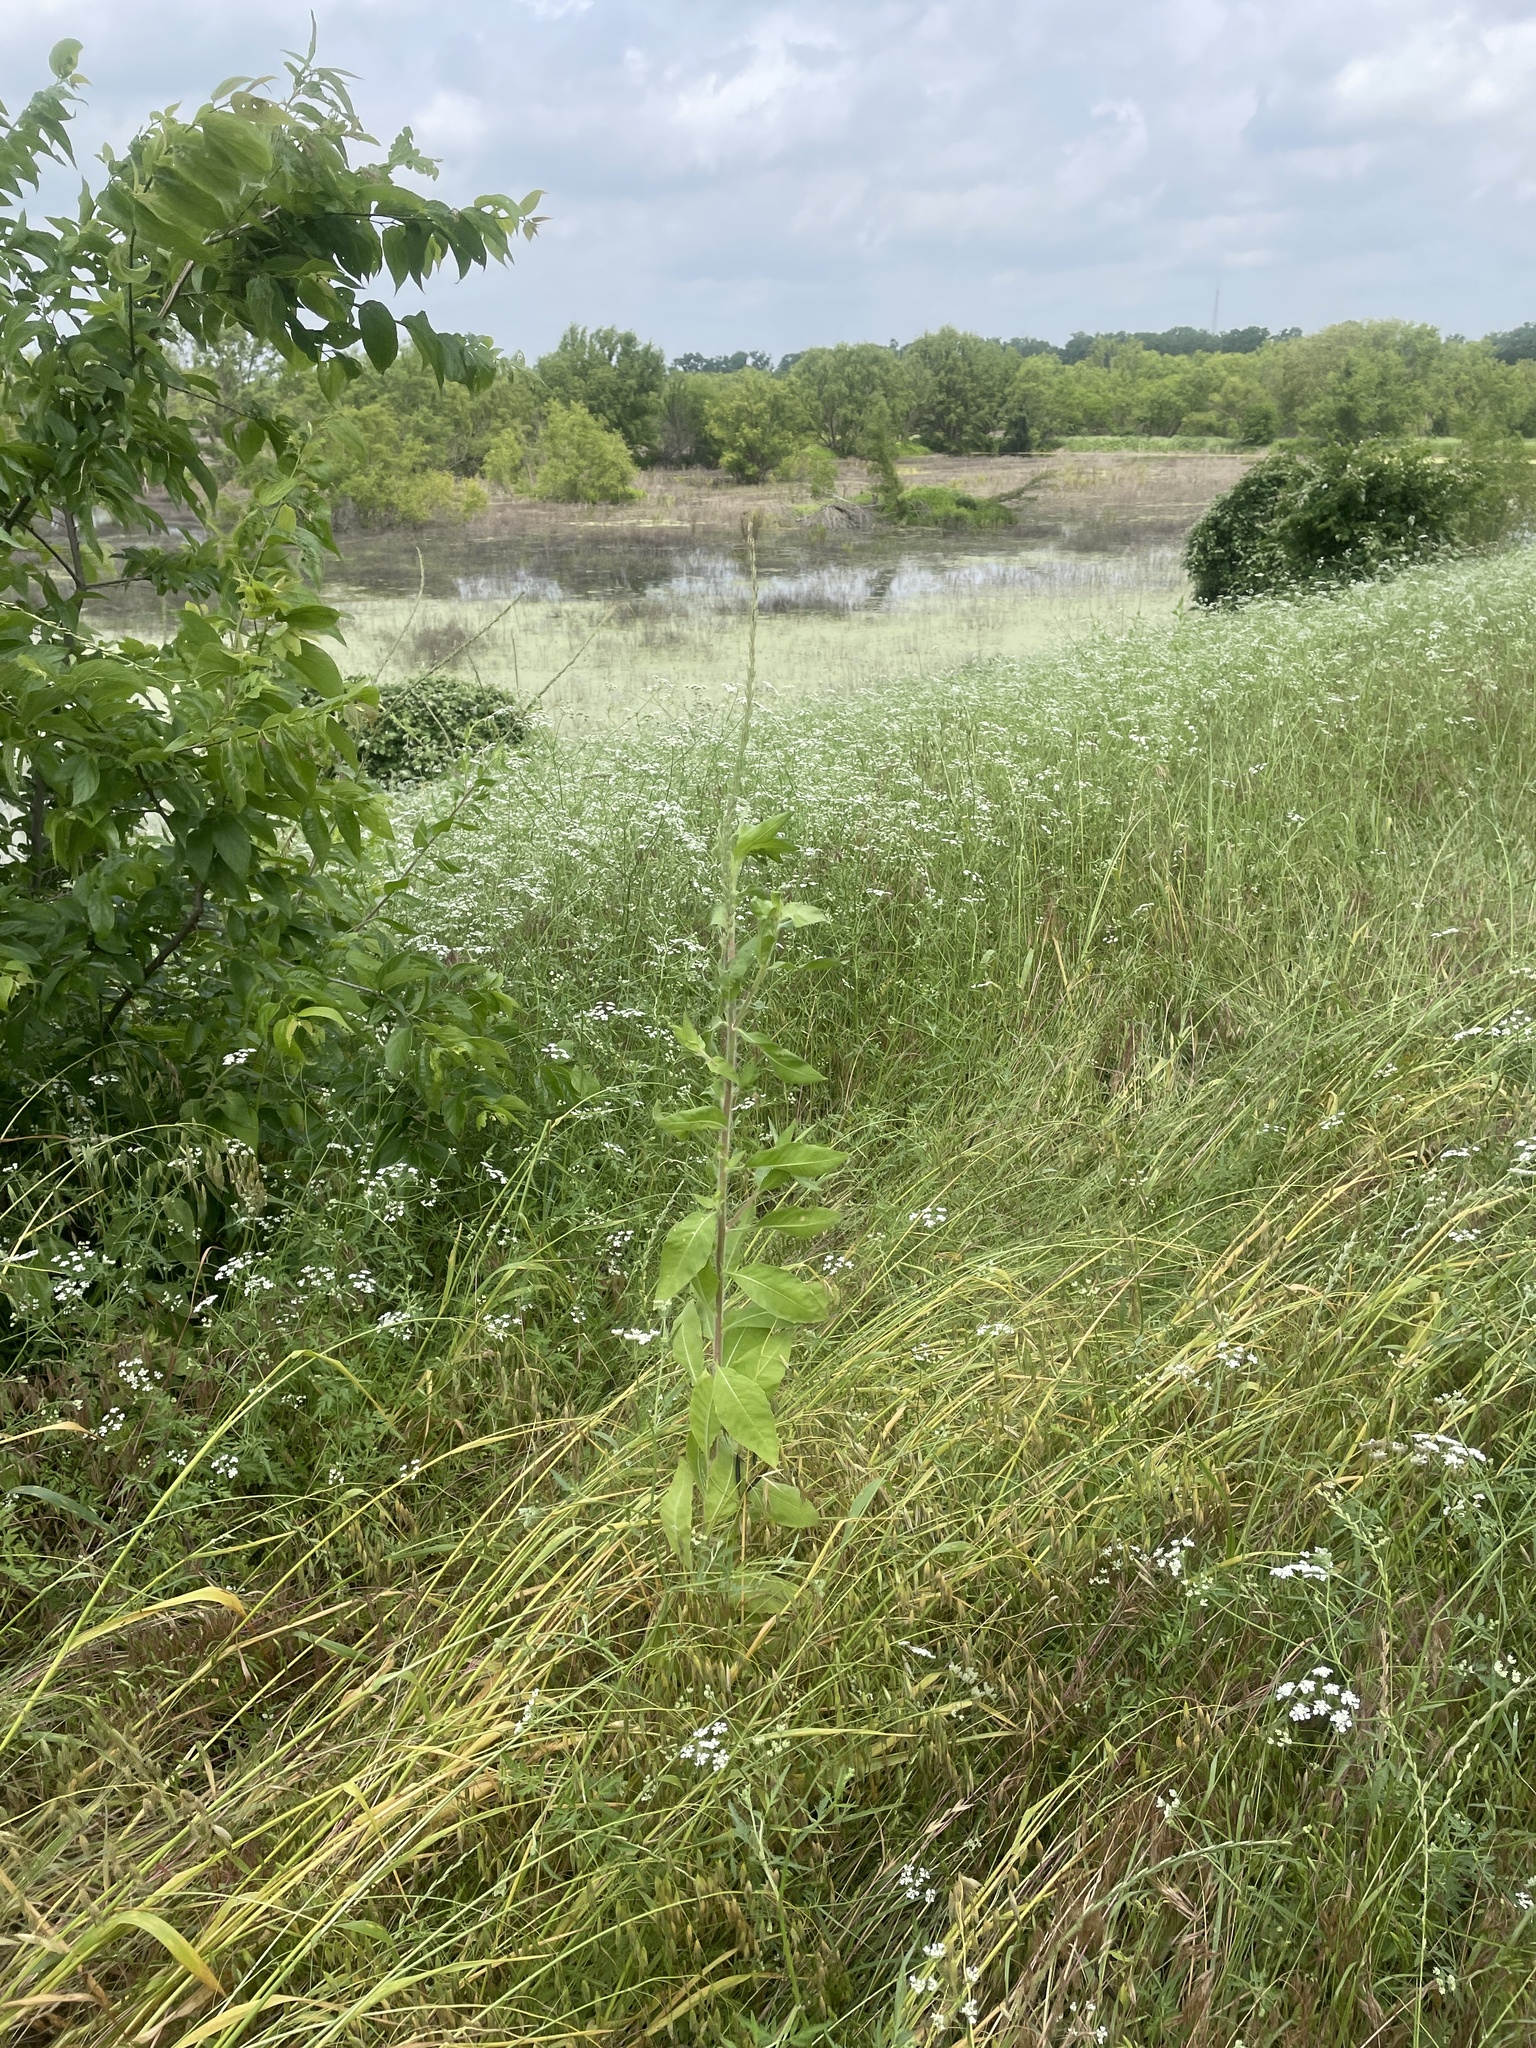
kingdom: Plantae
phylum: Tracheophyta
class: Magnoliopsida
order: Myrtales
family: Onagraceae
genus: Oenothera
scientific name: Oenothera curtiflora
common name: Velvetweed
